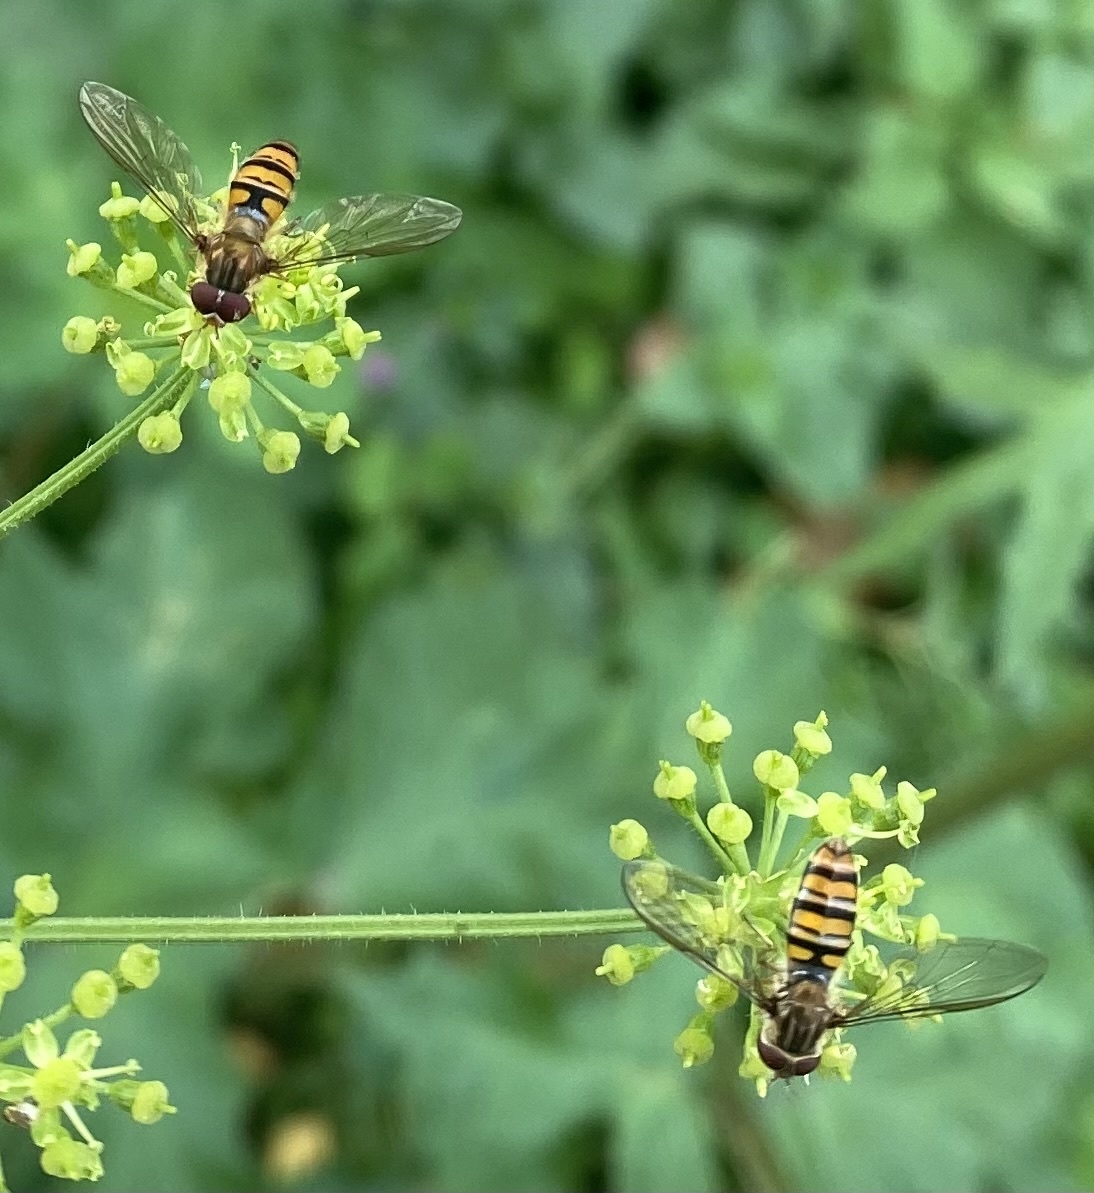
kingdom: Animalia
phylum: Arthropoda
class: Insecta
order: Diptera
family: Syrphidae
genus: Episyrphus
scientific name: Episyrphus balteatus
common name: Marmalade hoverfly
